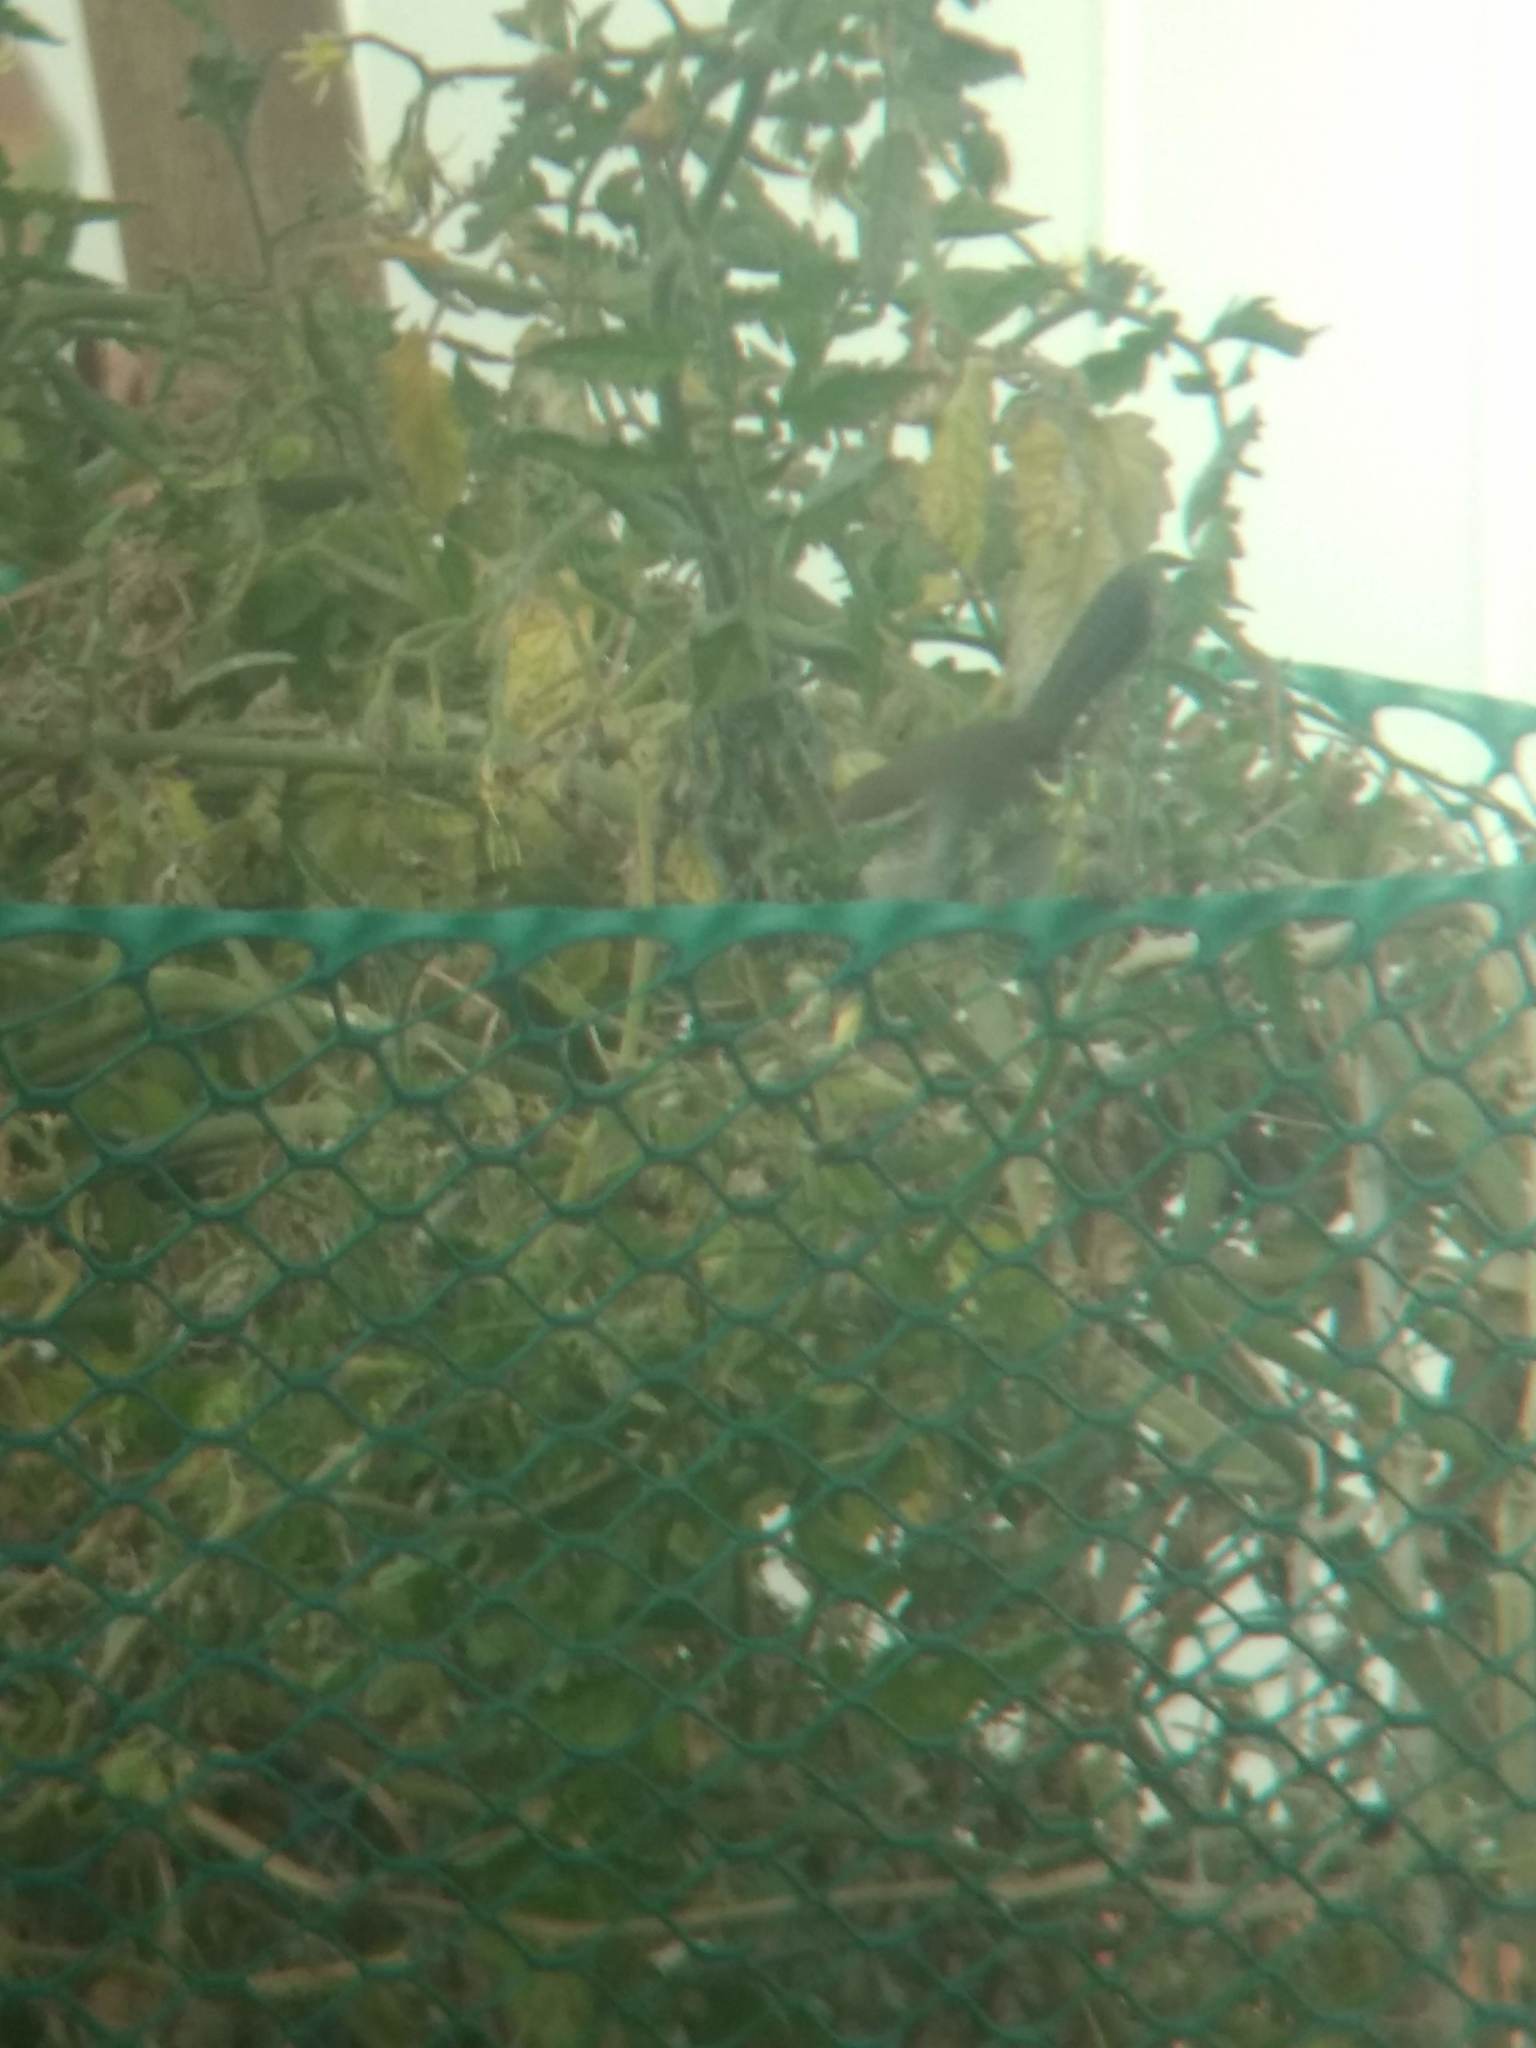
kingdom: Animalia
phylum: Chordata
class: Aves
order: Passeriformes
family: Troglodytidae
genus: Thryomanes
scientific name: Thryomanes bewickii
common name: Bewick's wren
